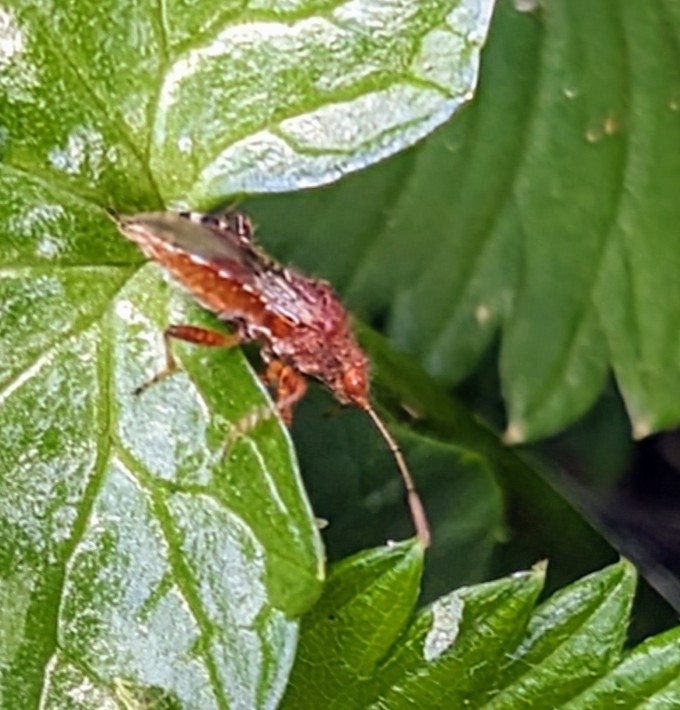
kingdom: Animalia
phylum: Arthropoda
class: Insecta
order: Hemiptera
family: Rhopalidae
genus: Rhopalus
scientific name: Rhopalus subrufus
